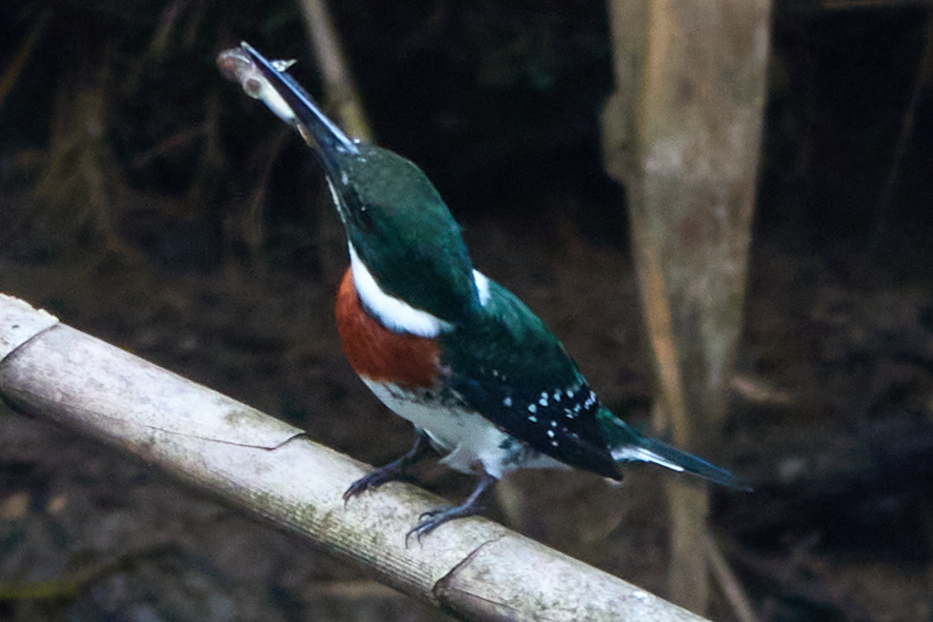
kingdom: Animalia
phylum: Chordata
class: Aves
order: Coraciiformes
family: Alcedinidae
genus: Chloroceryle
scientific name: Chloroceryle americana
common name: Green kingfisher
